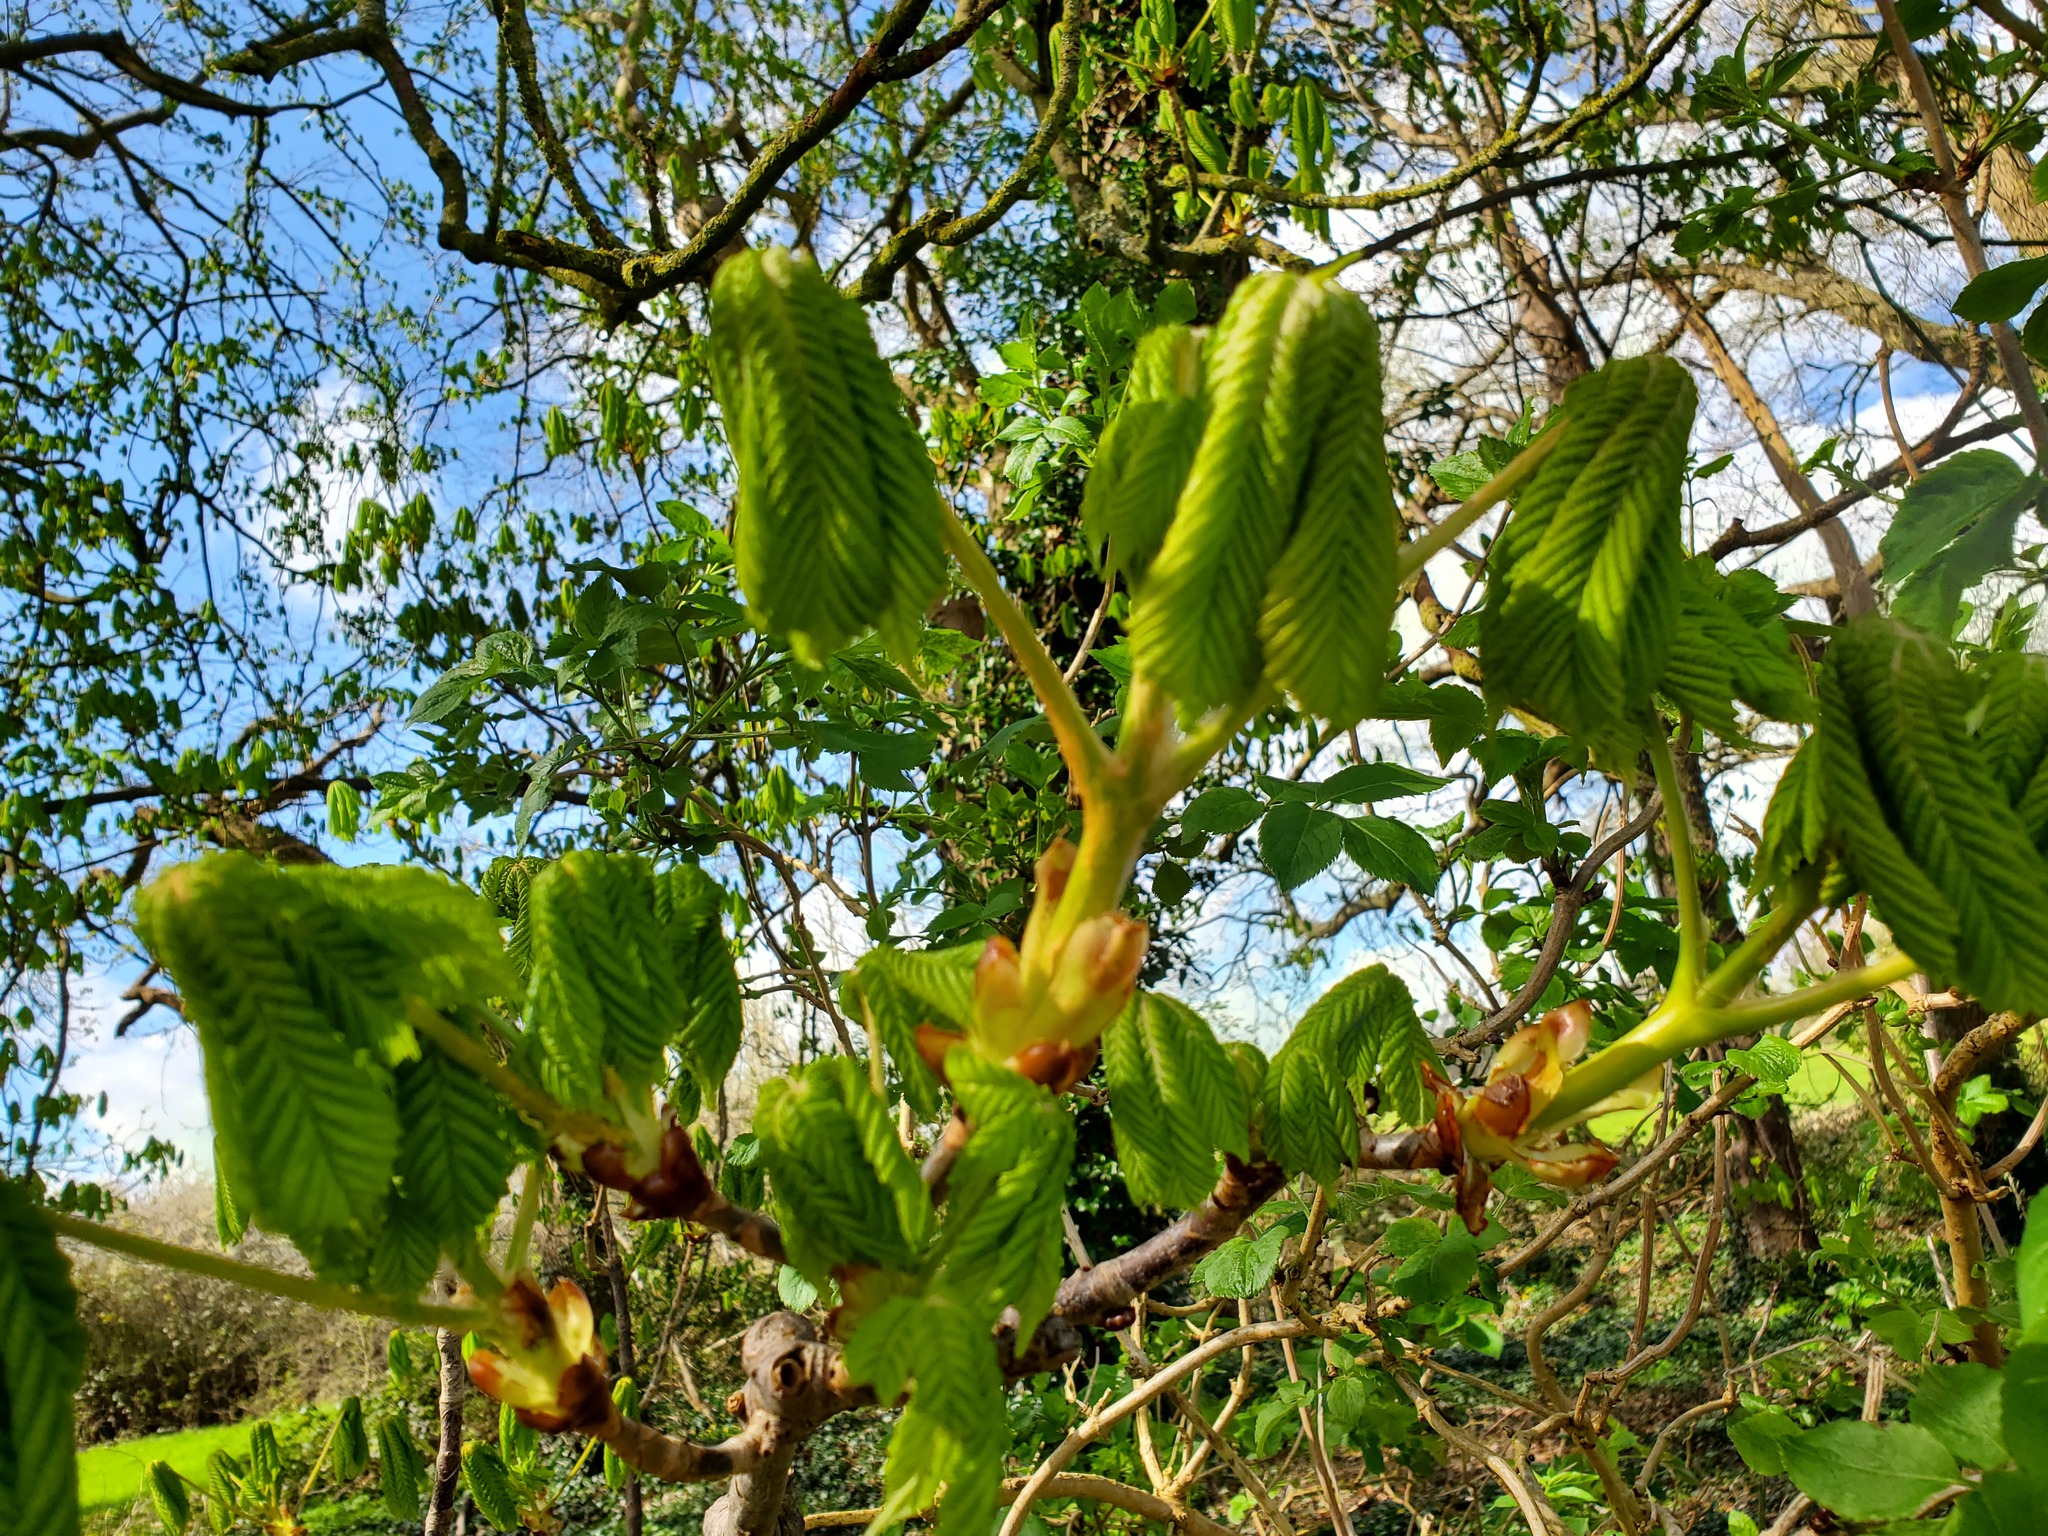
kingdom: Plantae
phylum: Tracheophyta
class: Magnoliopsida
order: Sapindales
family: Sapindaceae
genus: Aesculus
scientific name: Aesculus hippocastanum
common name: Horse-chestnut
